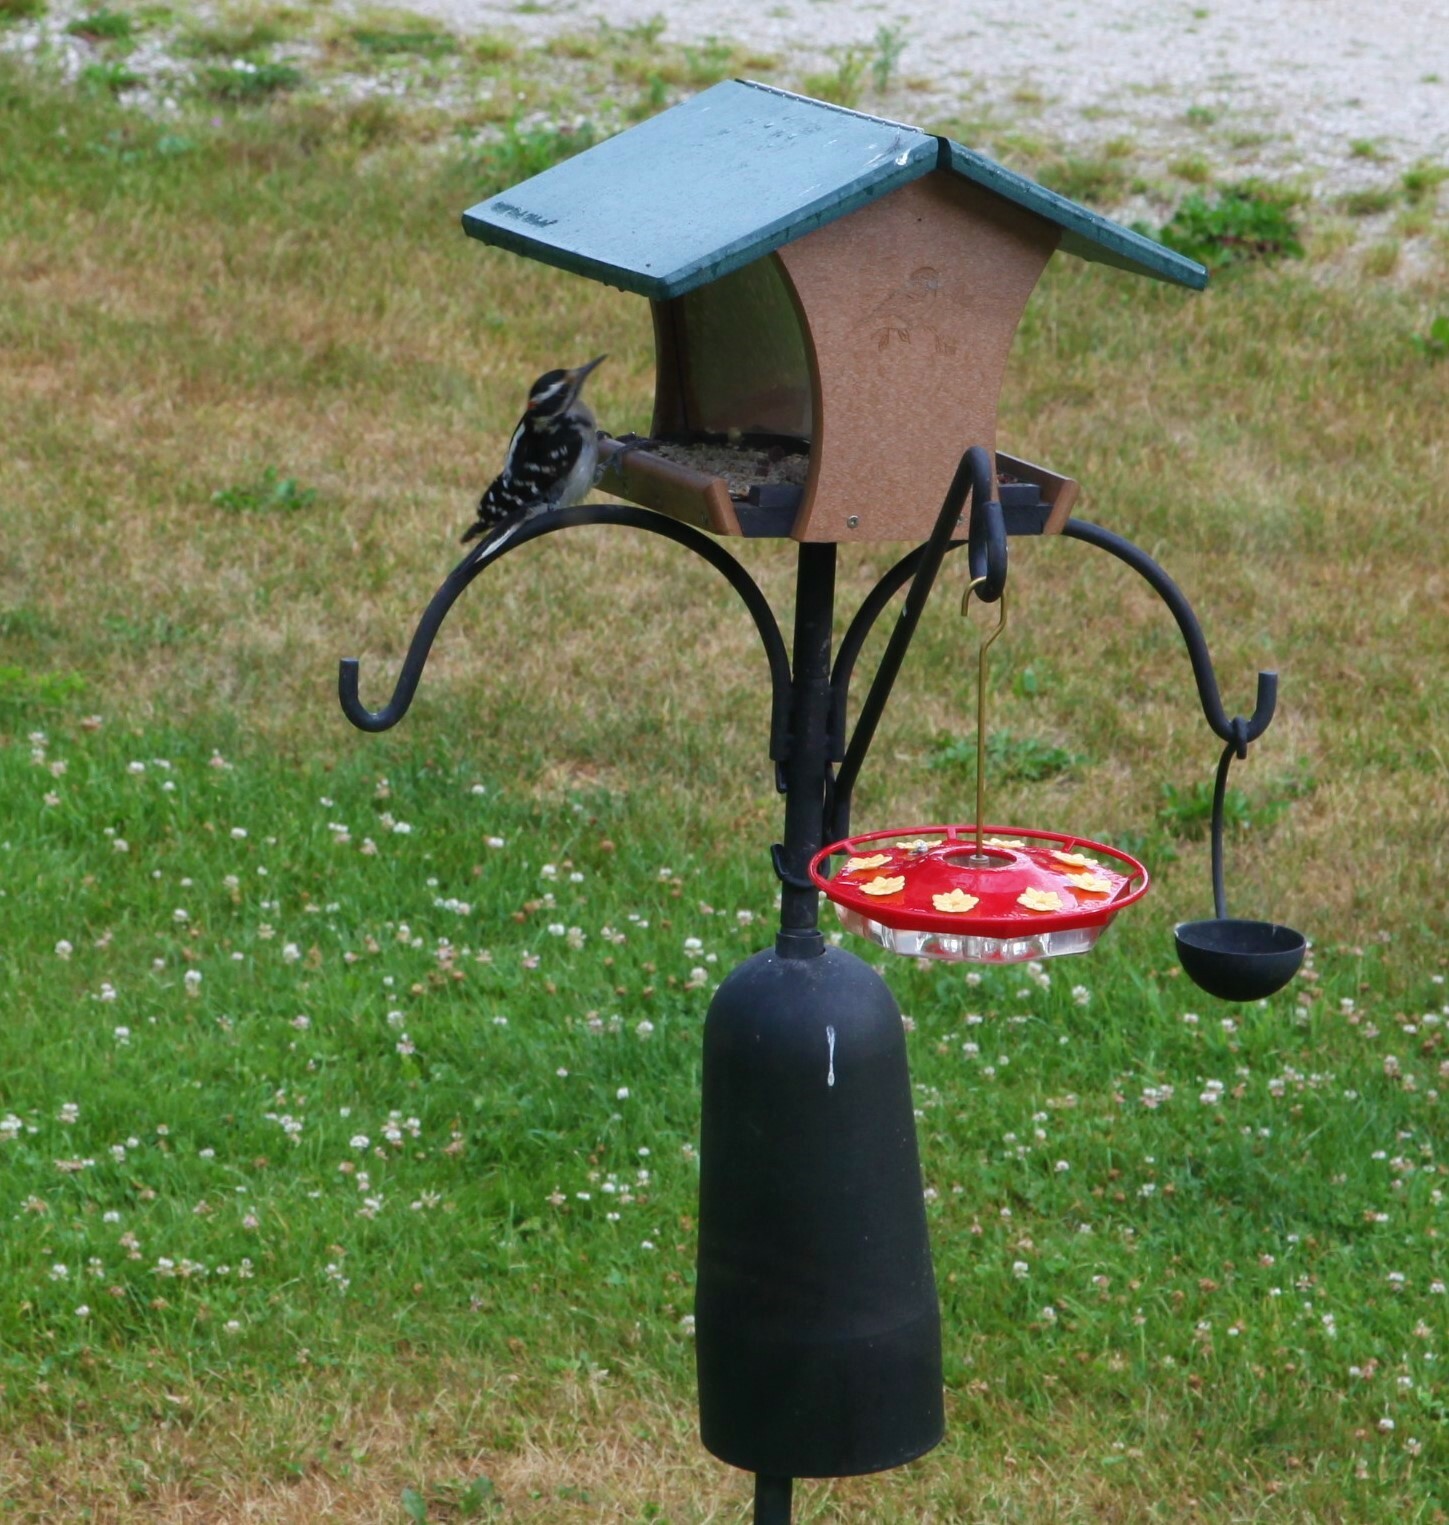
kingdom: Animalia
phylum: Chordata
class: Aves
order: Piciformes
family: Picidae
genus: Leuconotopicus
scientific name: Leuconotopicus villosus
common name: Hairy woodpecker
